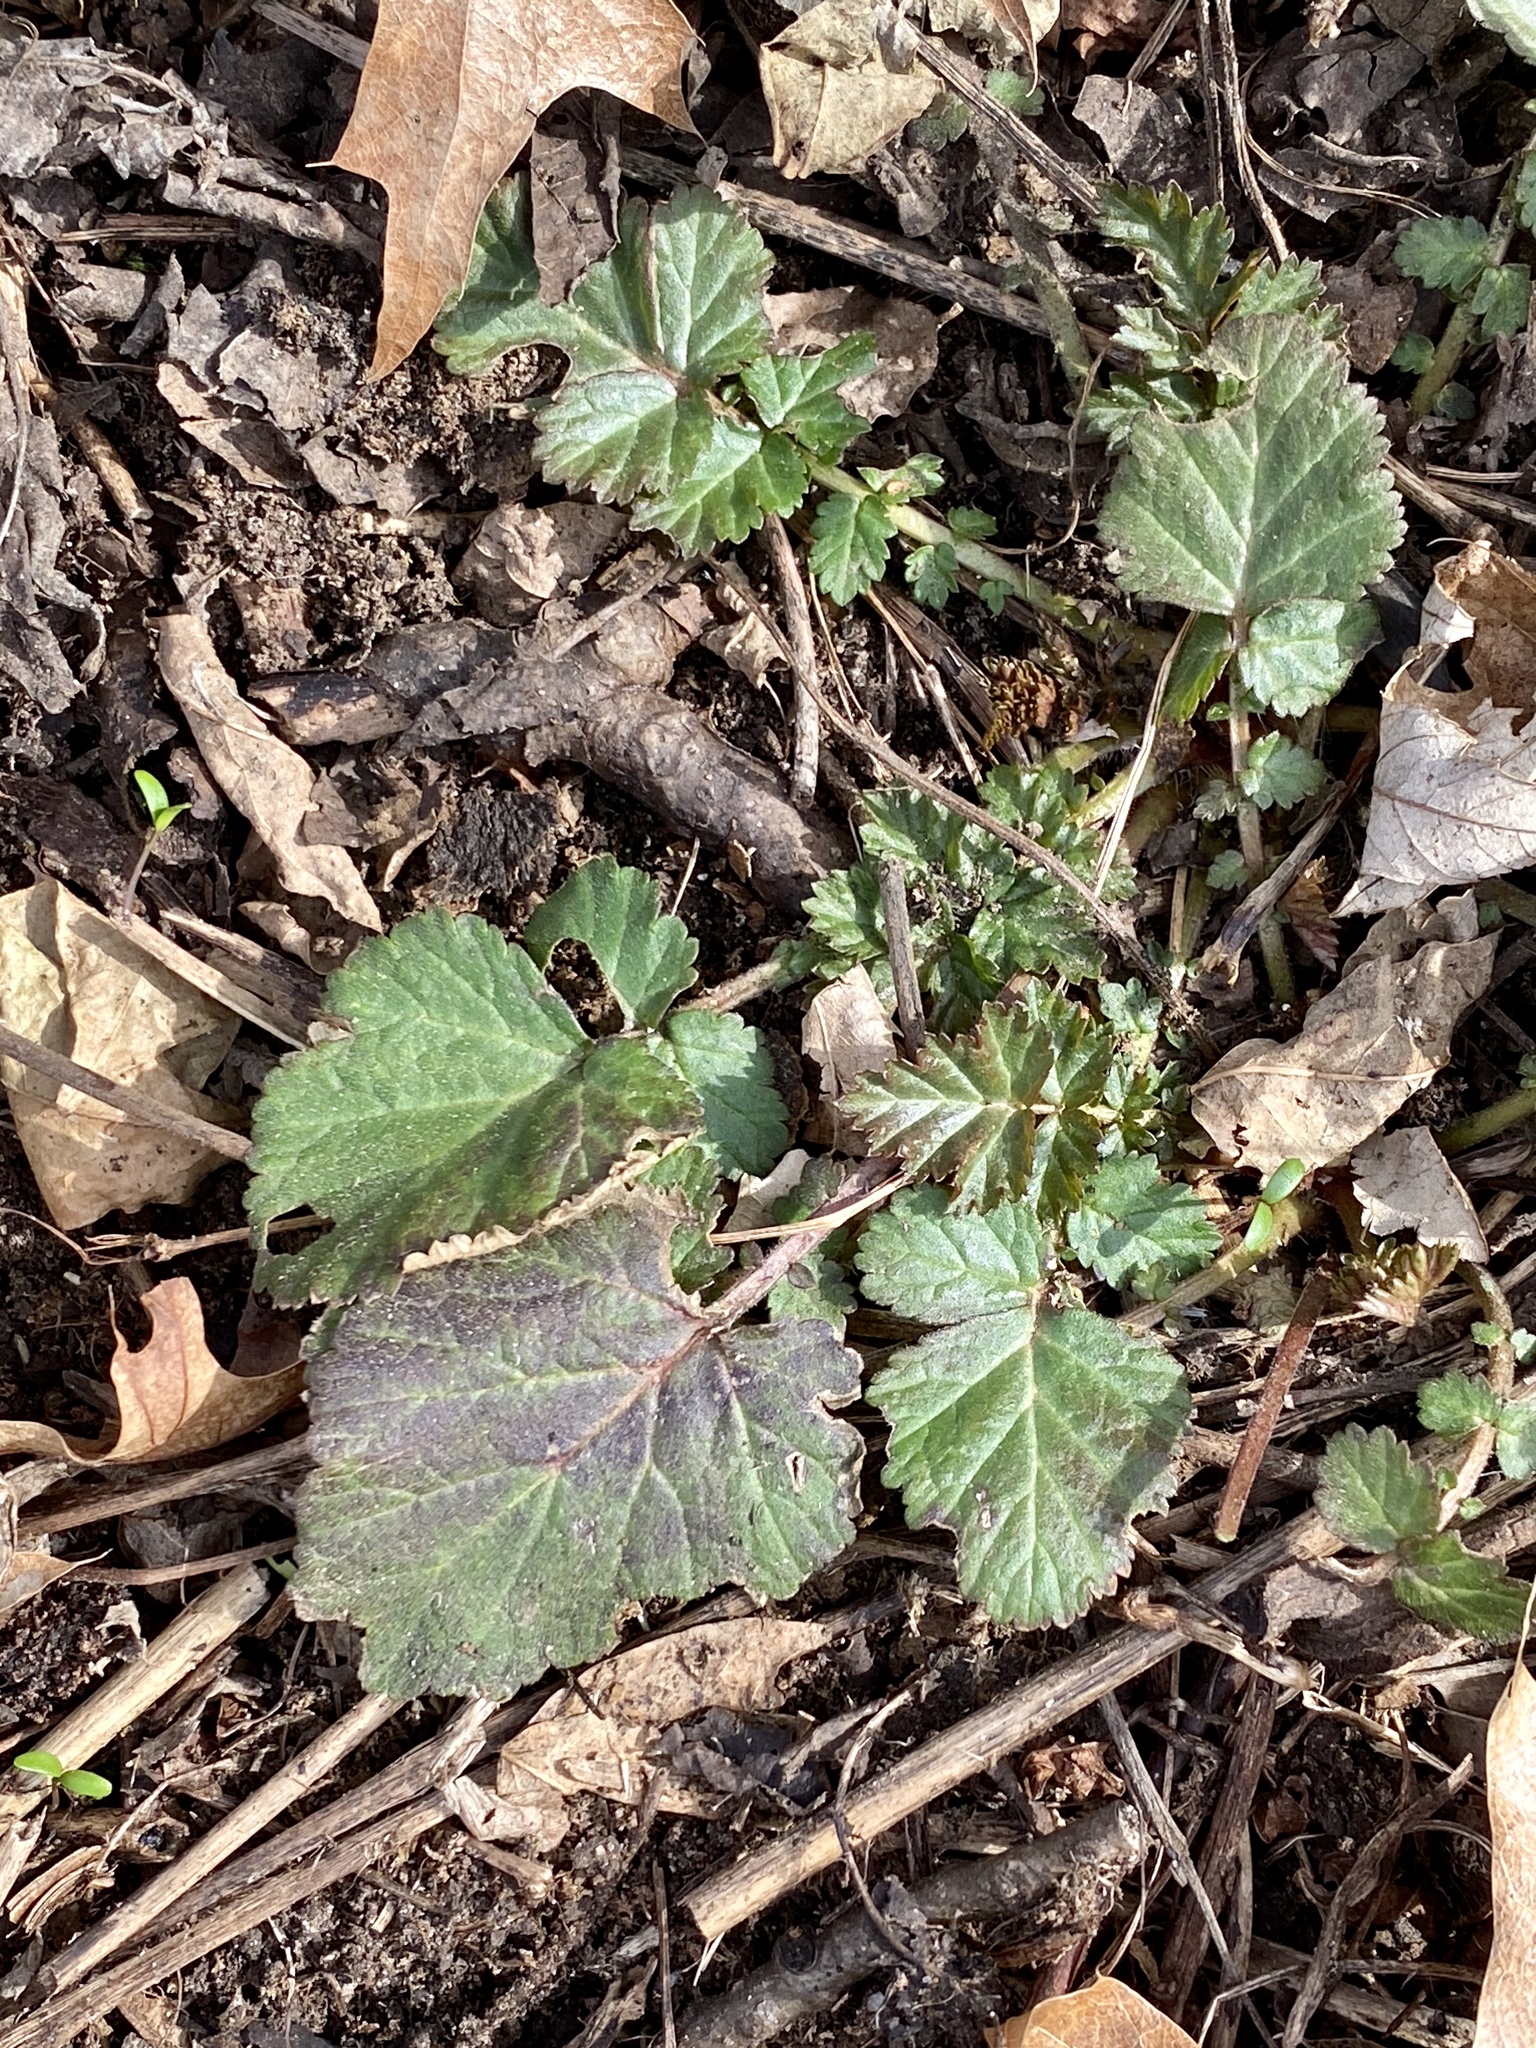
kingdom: Plantae
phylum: Tracheophyta
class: Magnoliopsida
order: Rosales
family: Rosaceae
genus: Geum
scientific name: Geum canadense
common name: White avens
